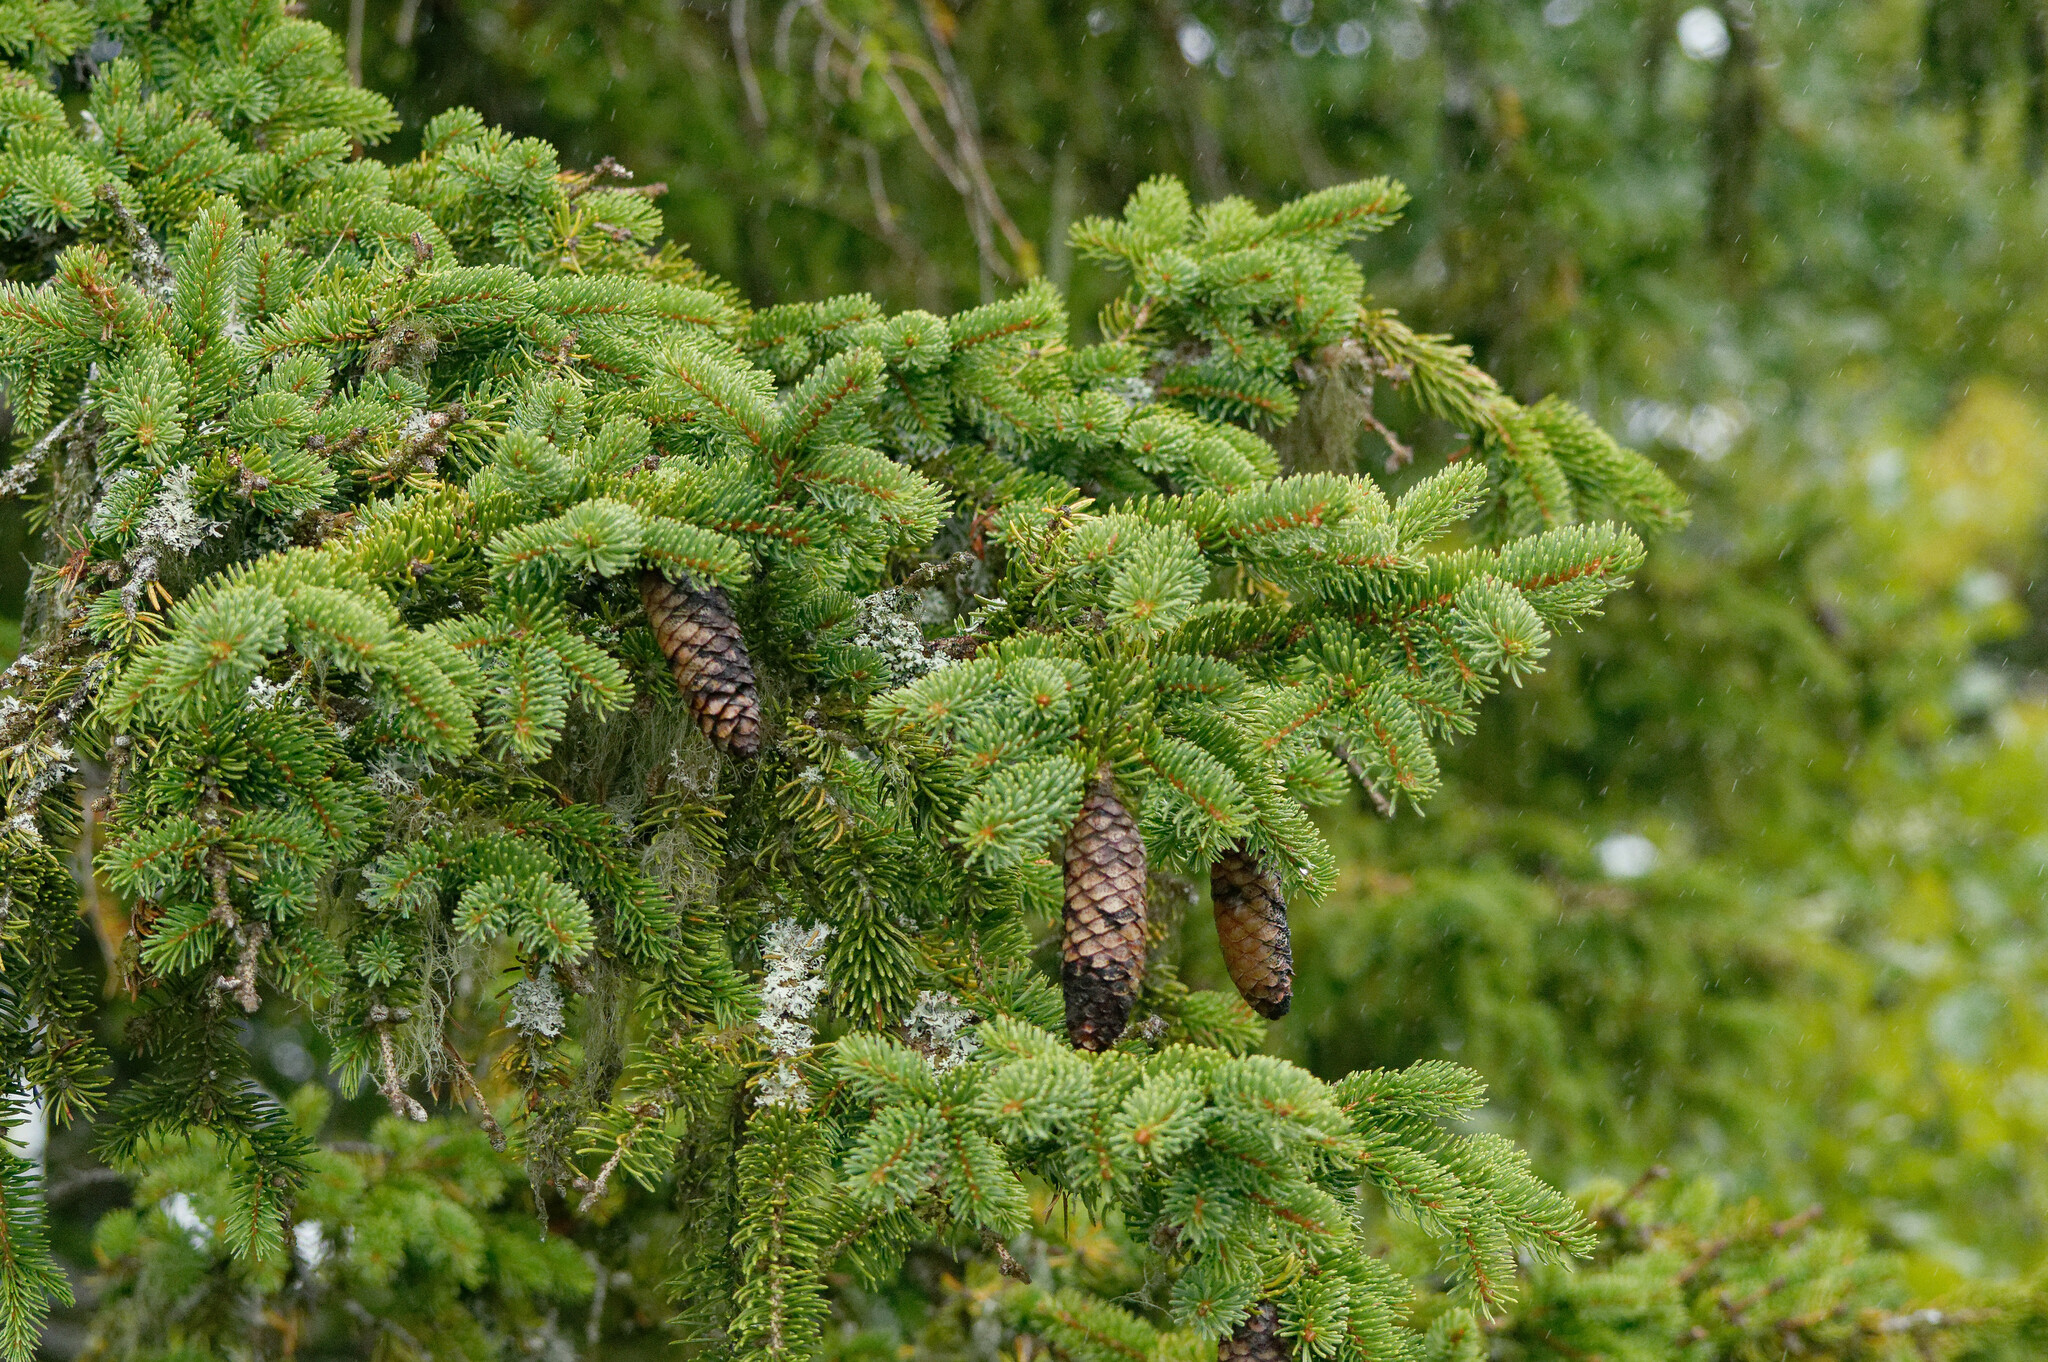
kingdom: Plantae
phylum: Tracheophyta
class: Pinopsida
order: Pinales
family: Pinaceae
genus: Picea
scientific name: Picea abies
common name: Norway spruce
